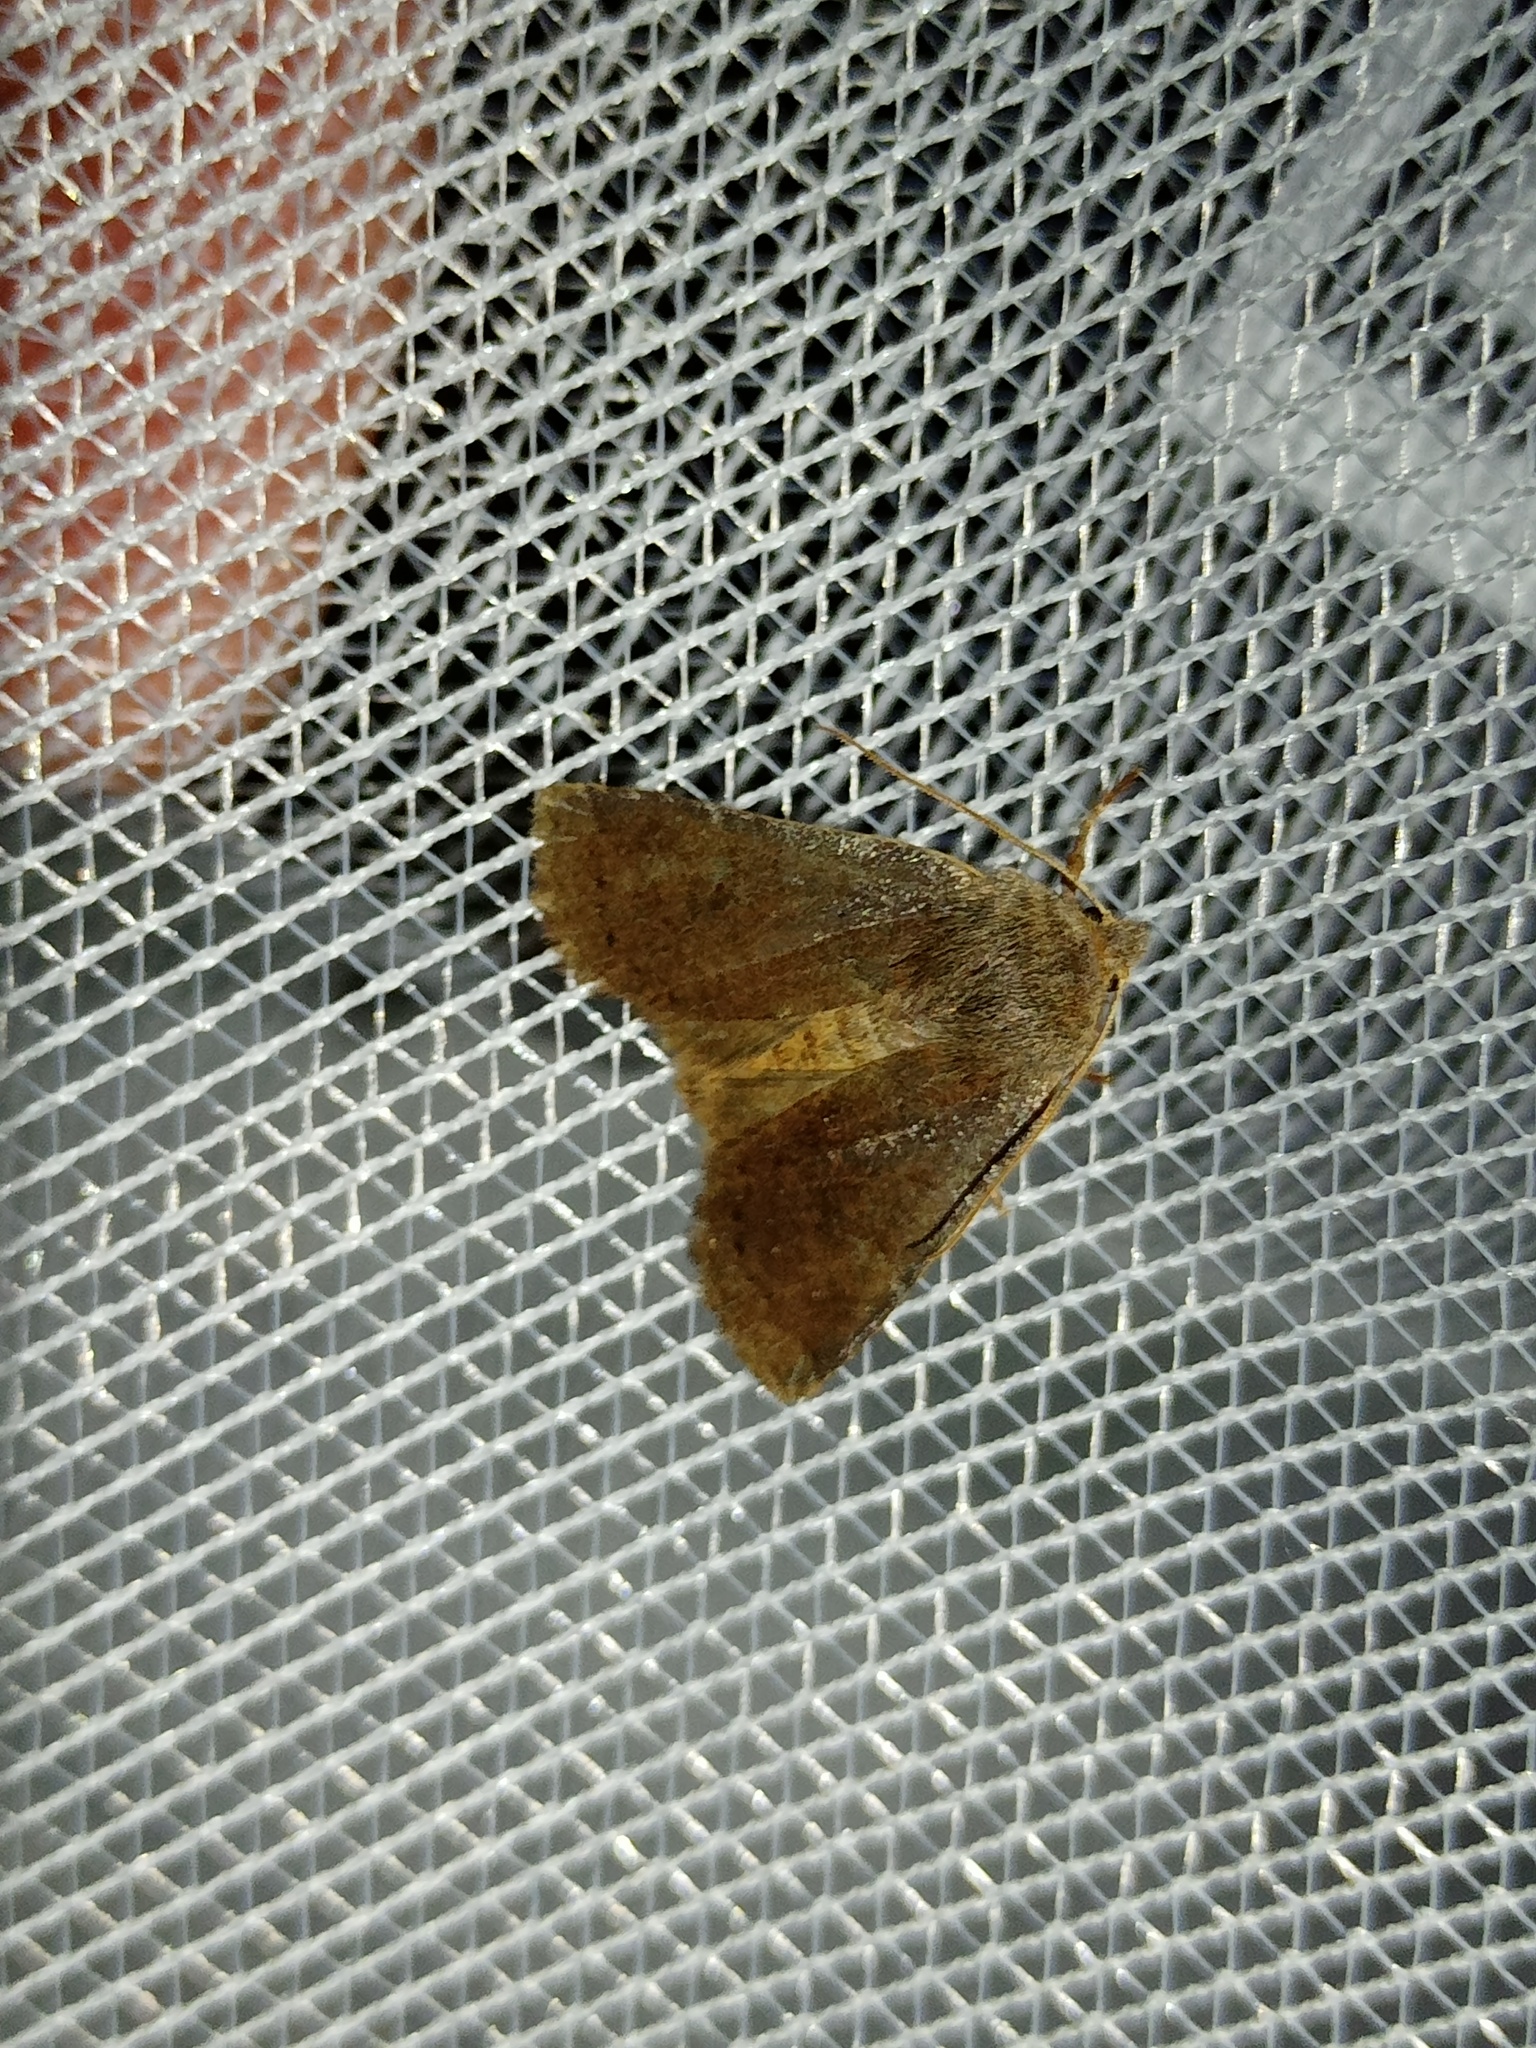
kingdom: Animalia
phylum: Arthropoda
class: Insecta
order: Lepidoptera
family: Noctuidae
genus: Conistra
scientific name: Conistra vaccinii
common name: Chestnut
